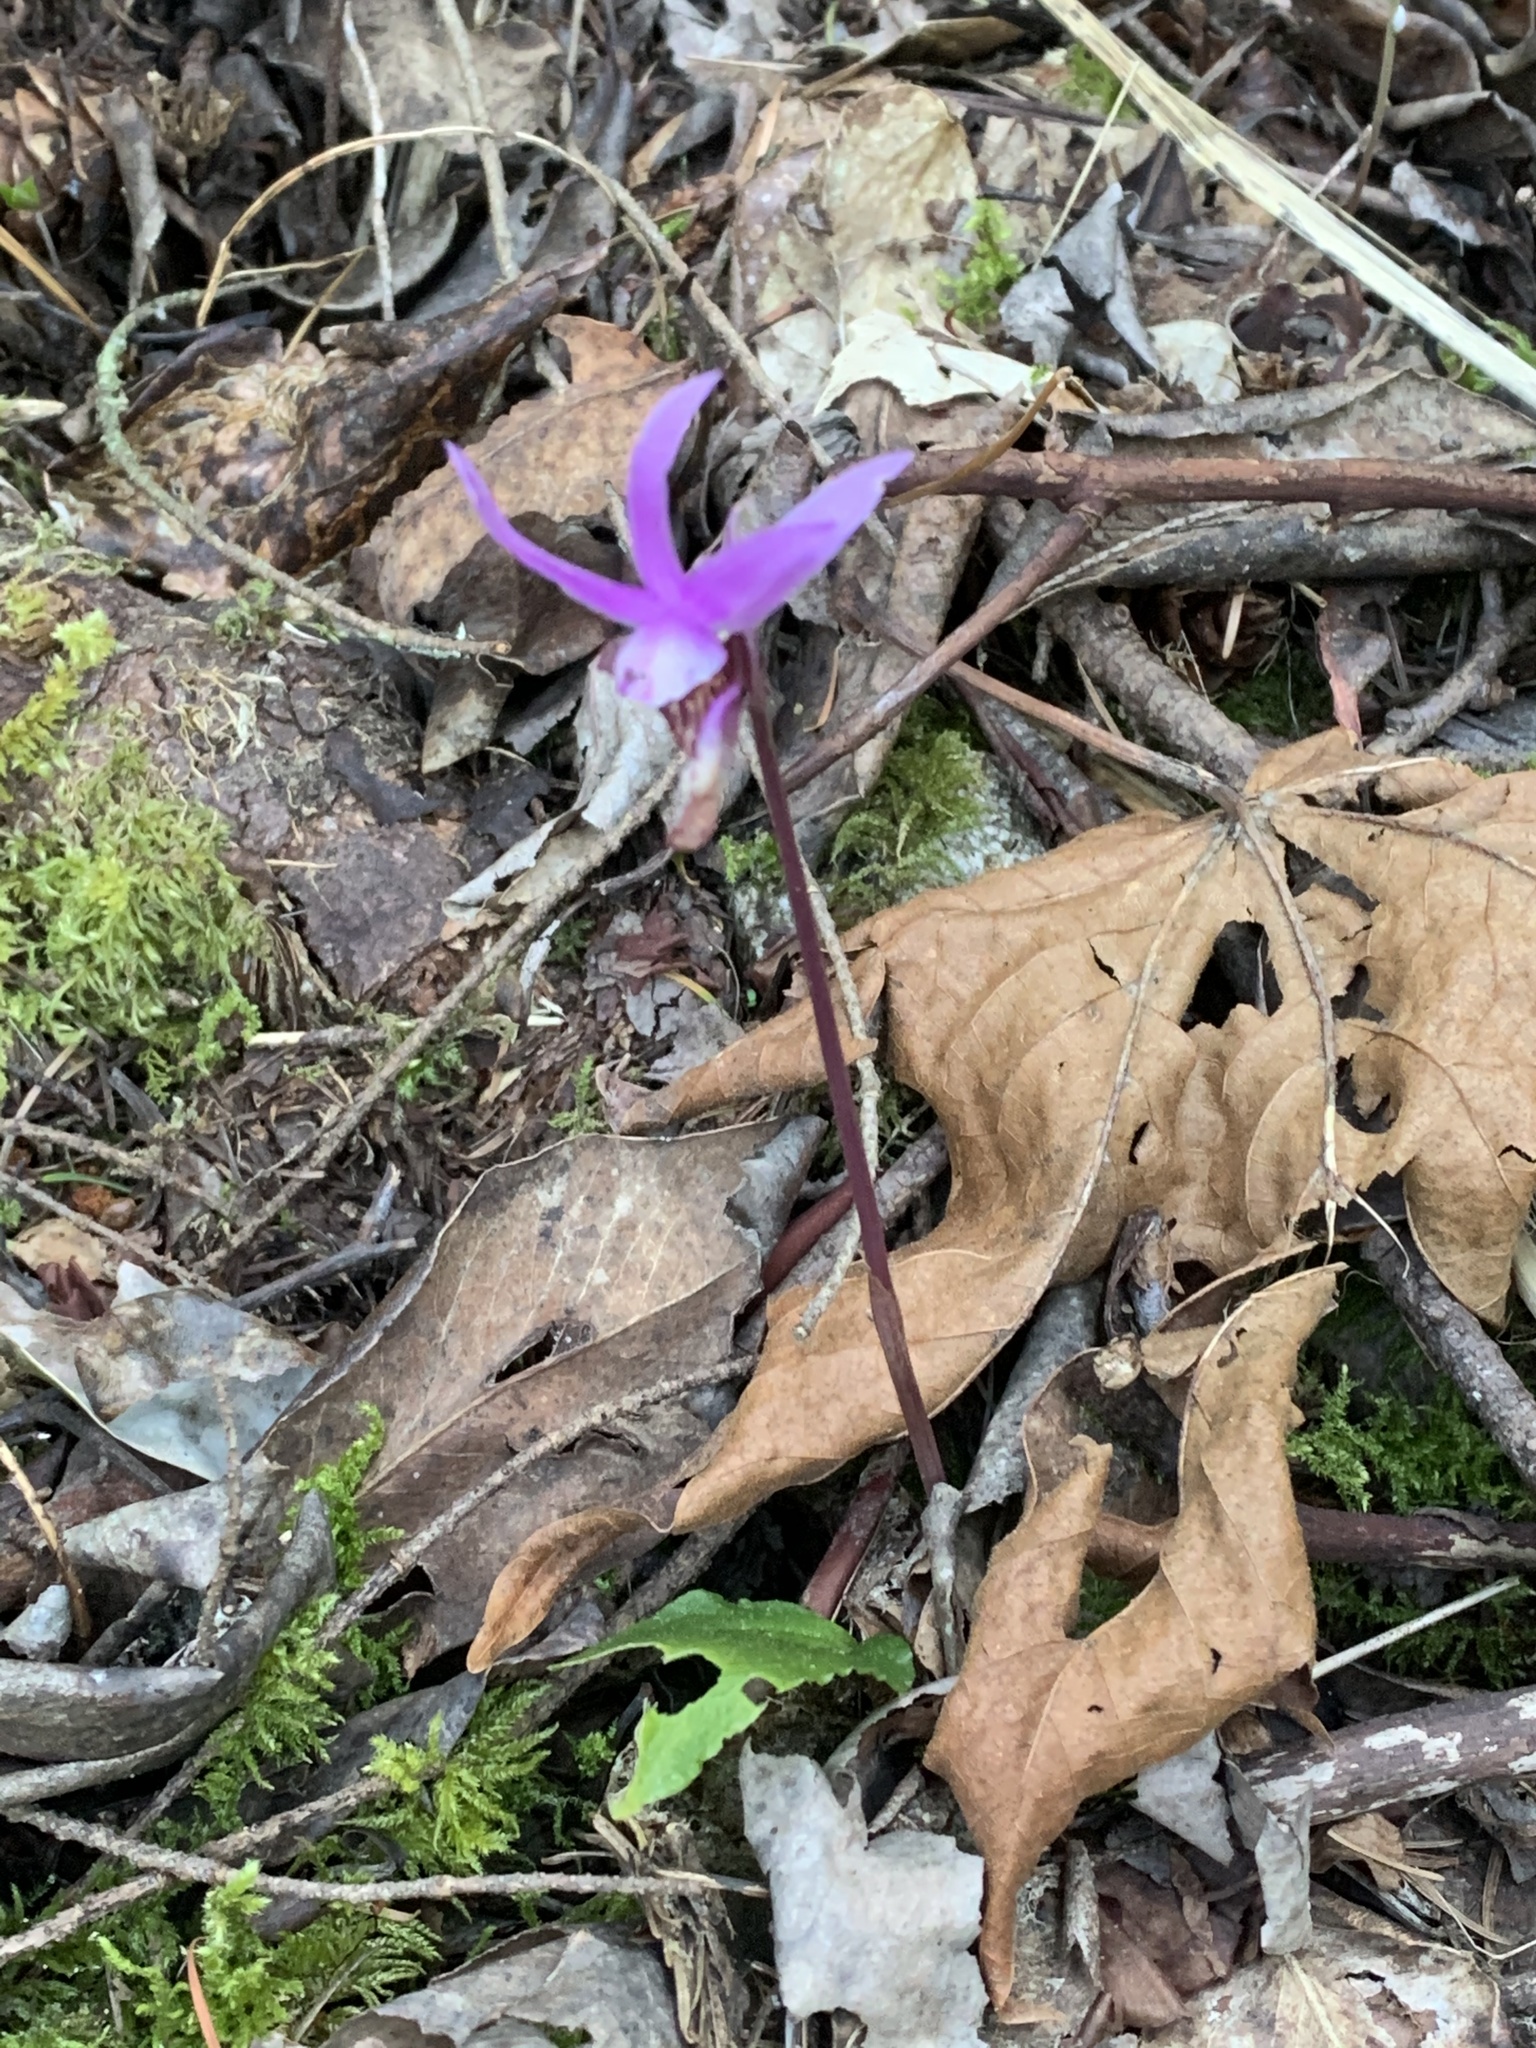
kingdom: Plantae
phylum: Tracheophyta
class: Liliopsida
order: Asparagales
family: Orchidaceae
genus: Calypso
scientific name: Calypso bulbosa
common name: Calypso
